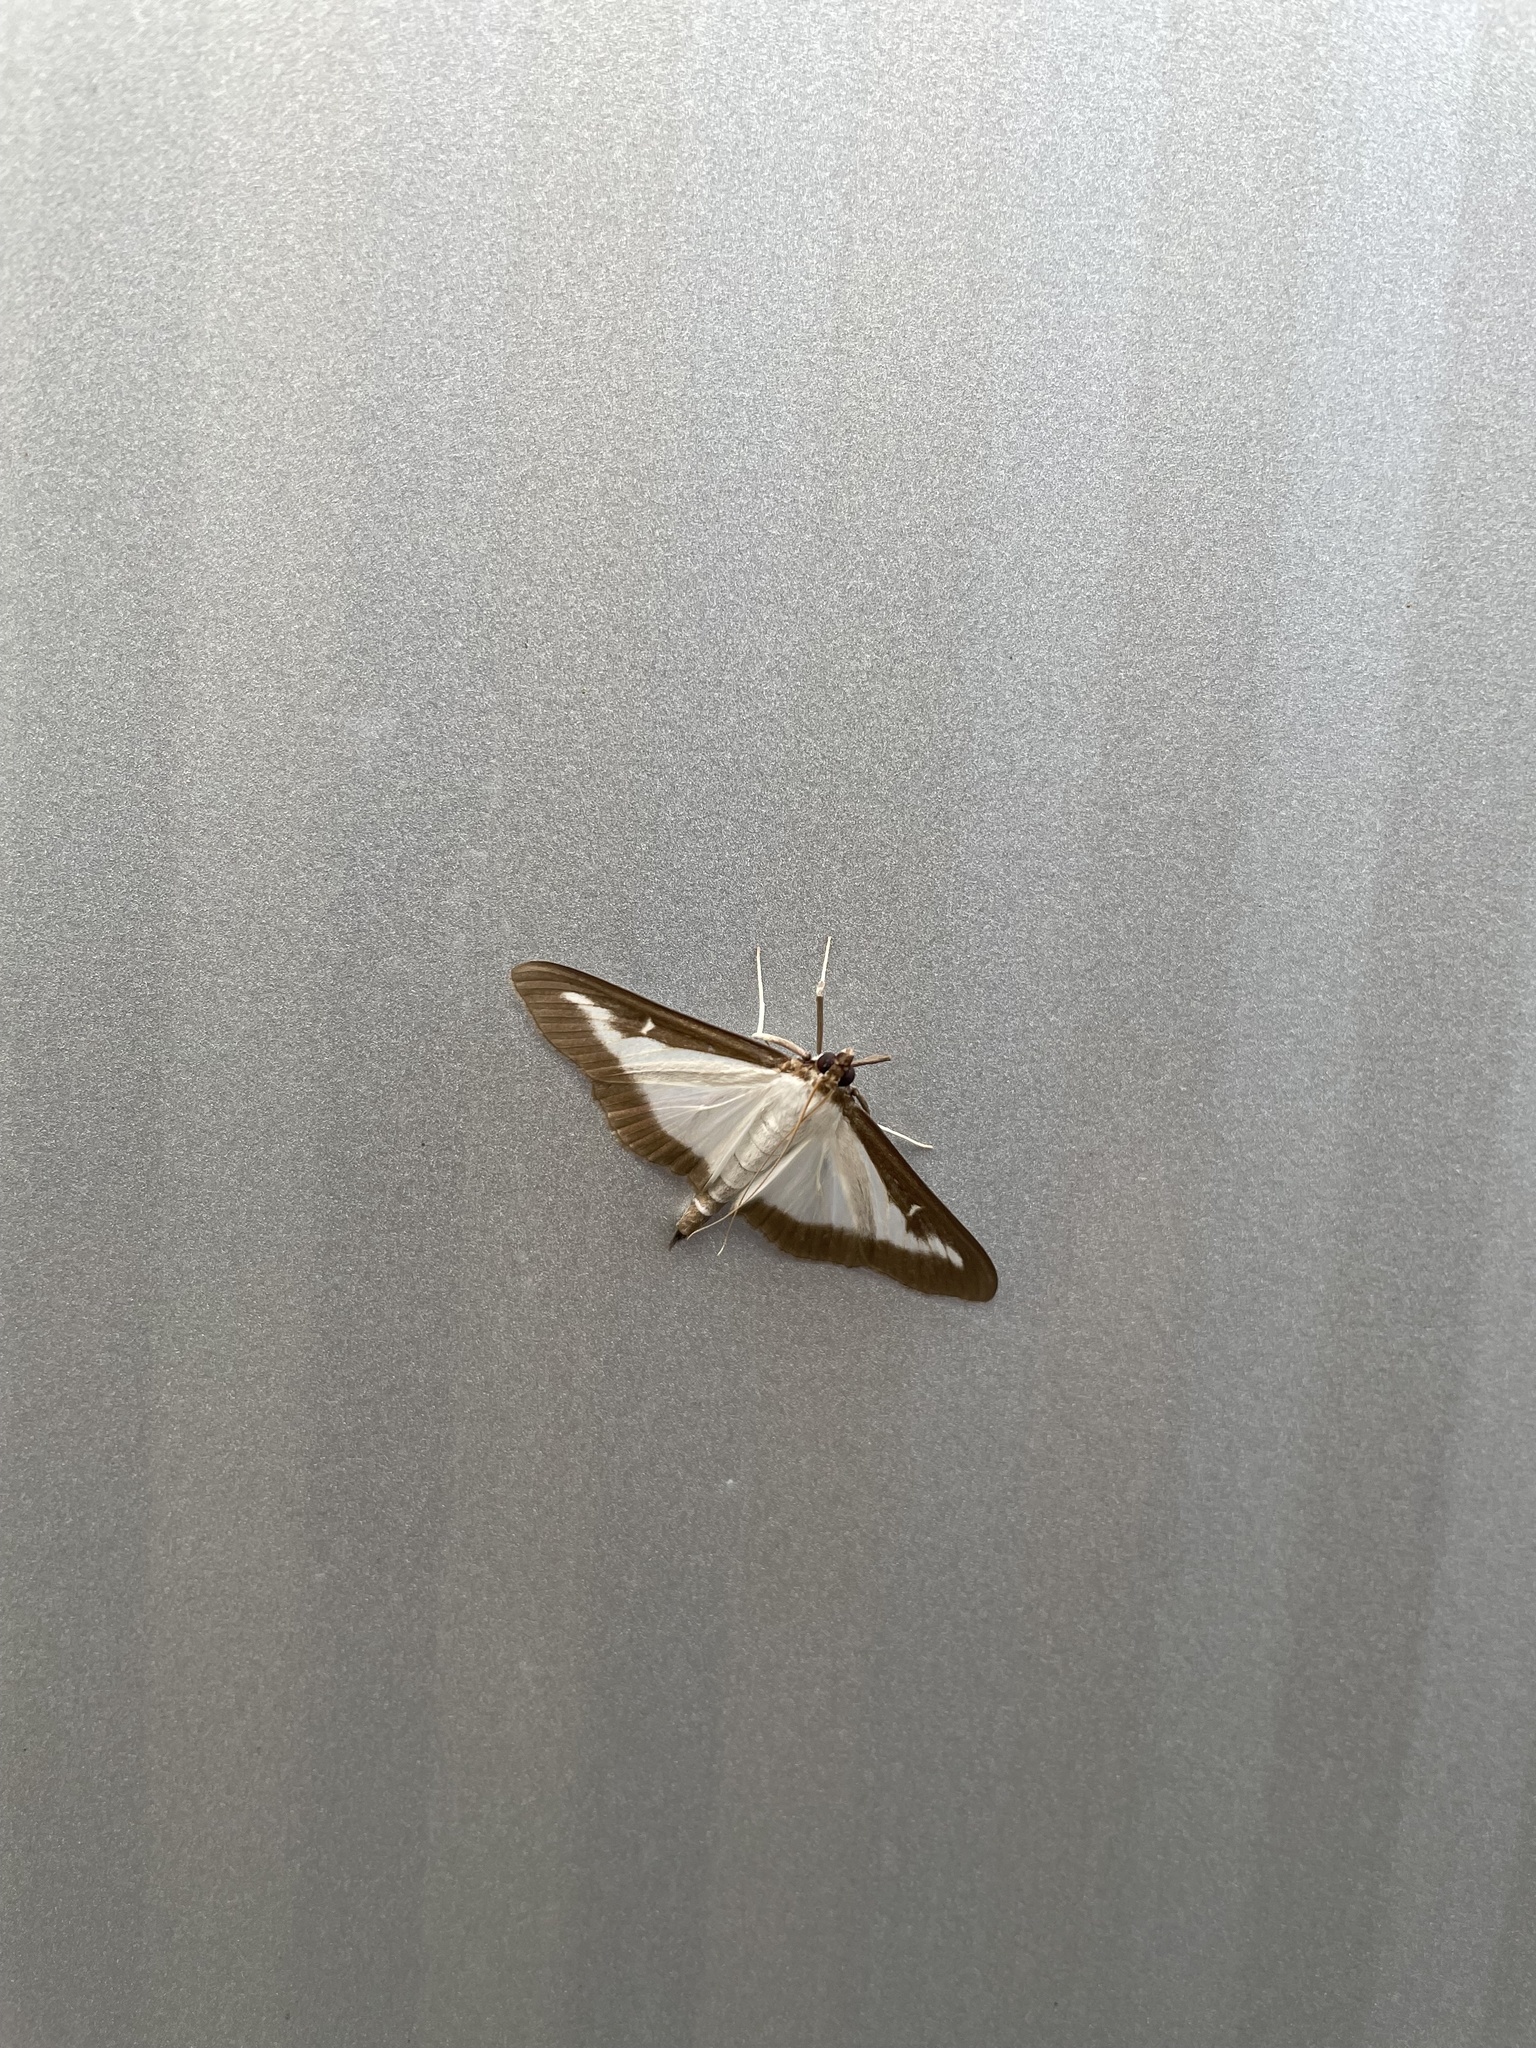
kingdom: Animalia
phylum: Arthropoda
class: Insecta
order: Lepidoptera
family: Crambidae
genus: Cydalima
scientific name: Cydalima perspectalis
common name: Box tree moth
